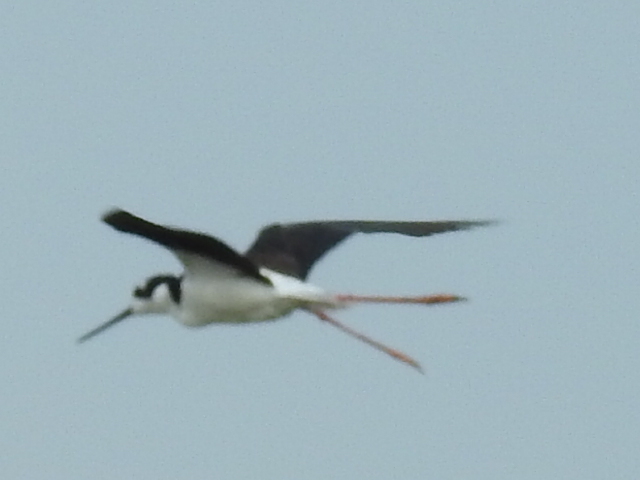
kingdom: Animalia
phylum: Chordata
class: Aves
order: Charadriiformes
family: Recurvirostridae
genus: Himantopus
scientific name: Himantopus mexicanus
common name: Black-necked stilt
